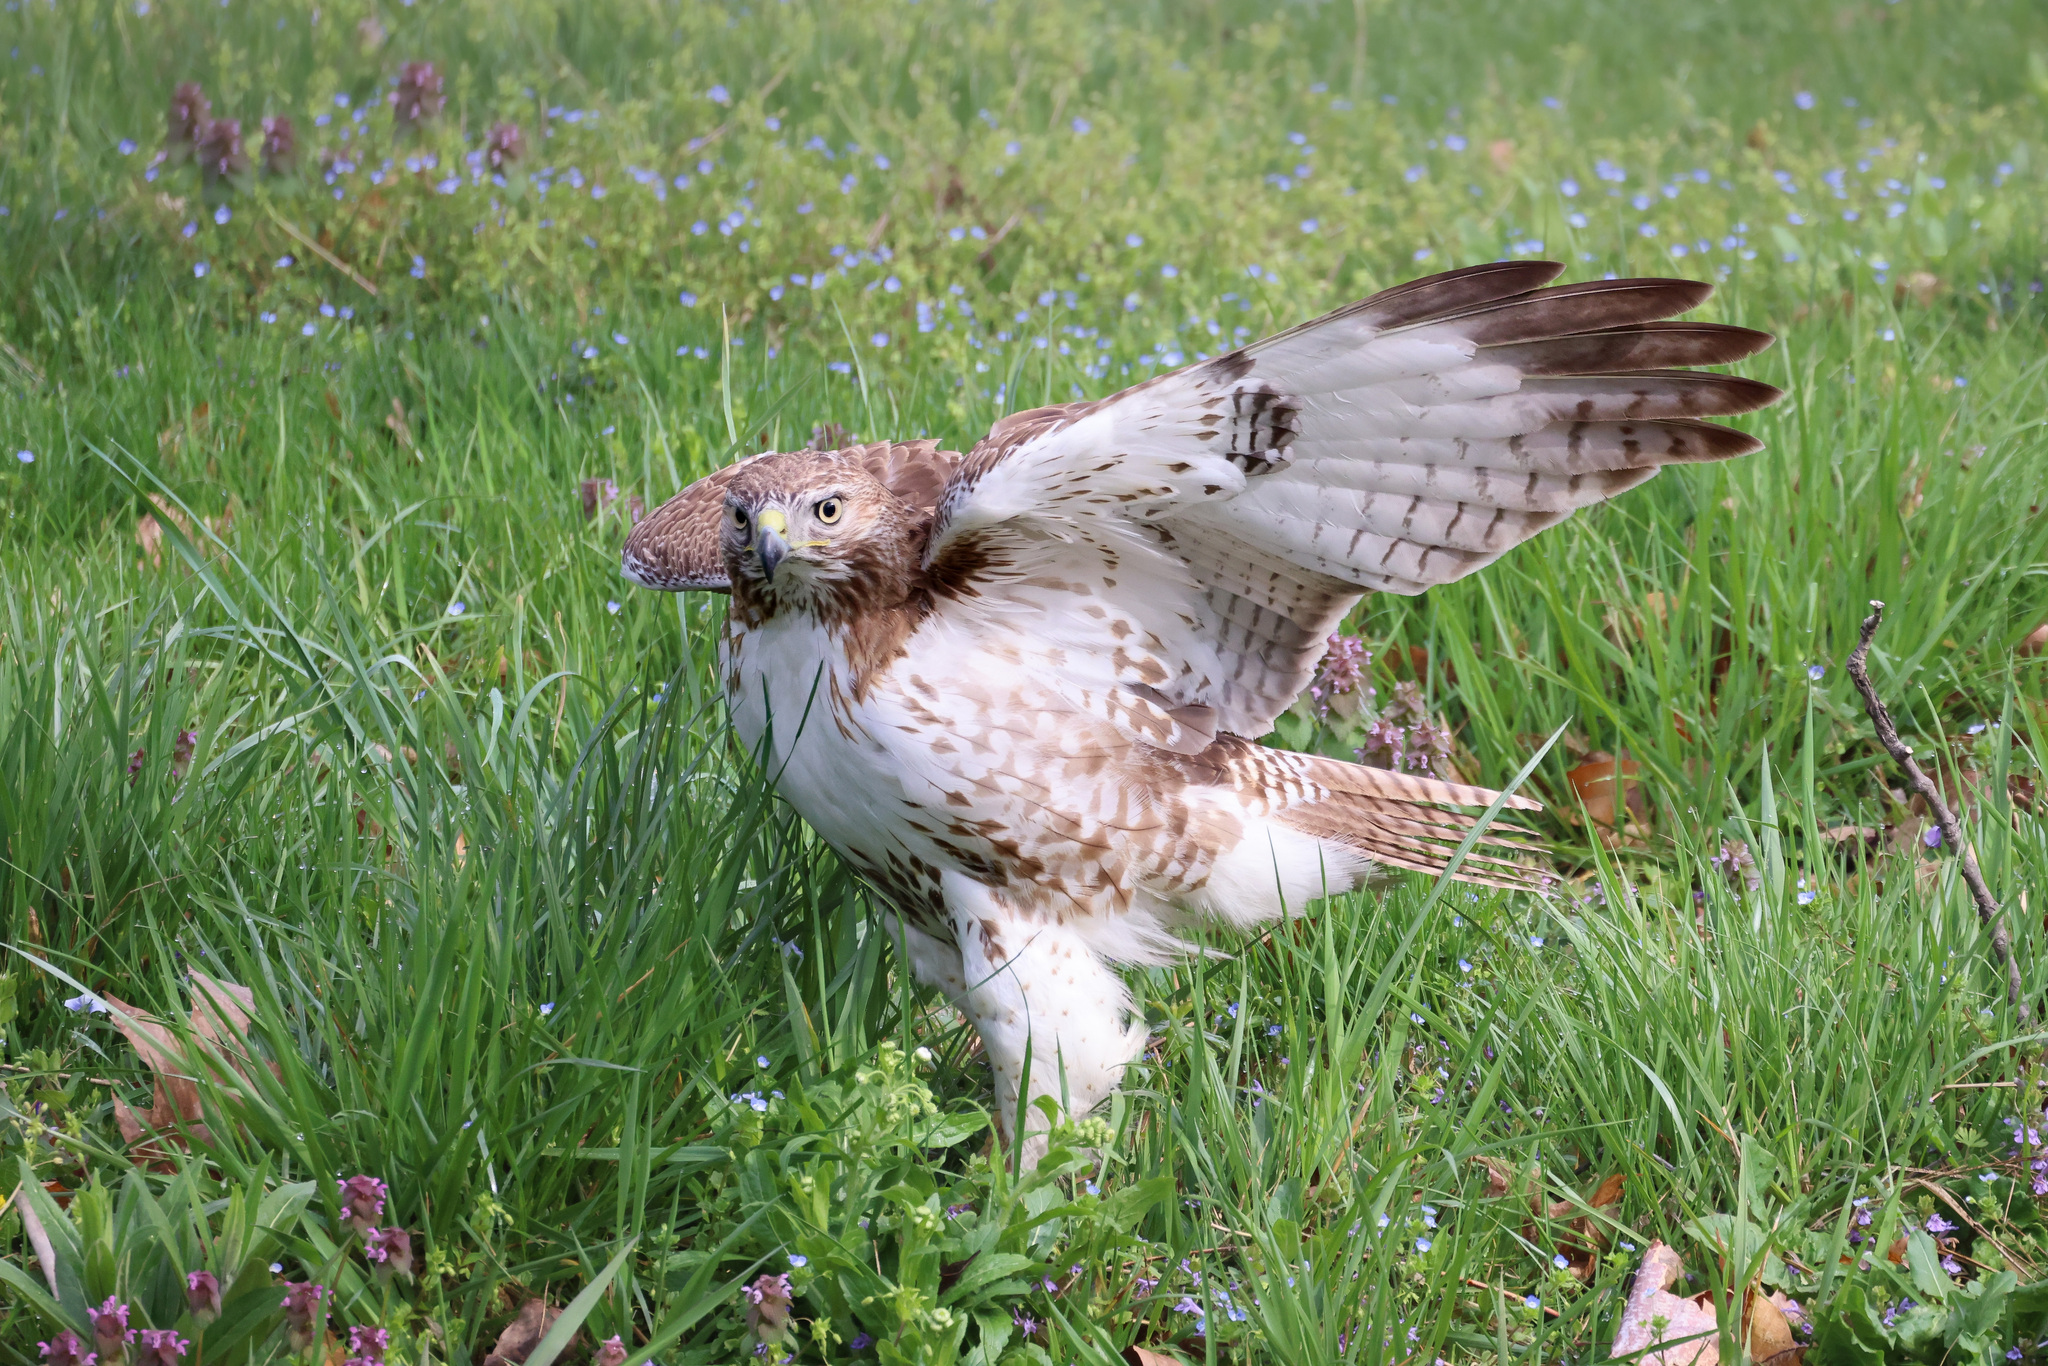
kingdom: Animalia
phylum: Chordata
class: Aves
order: Accipitriformes
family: Accipitridae
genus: Buteo
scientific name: Buteo jamaicensis
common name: Red-tailed hawk
